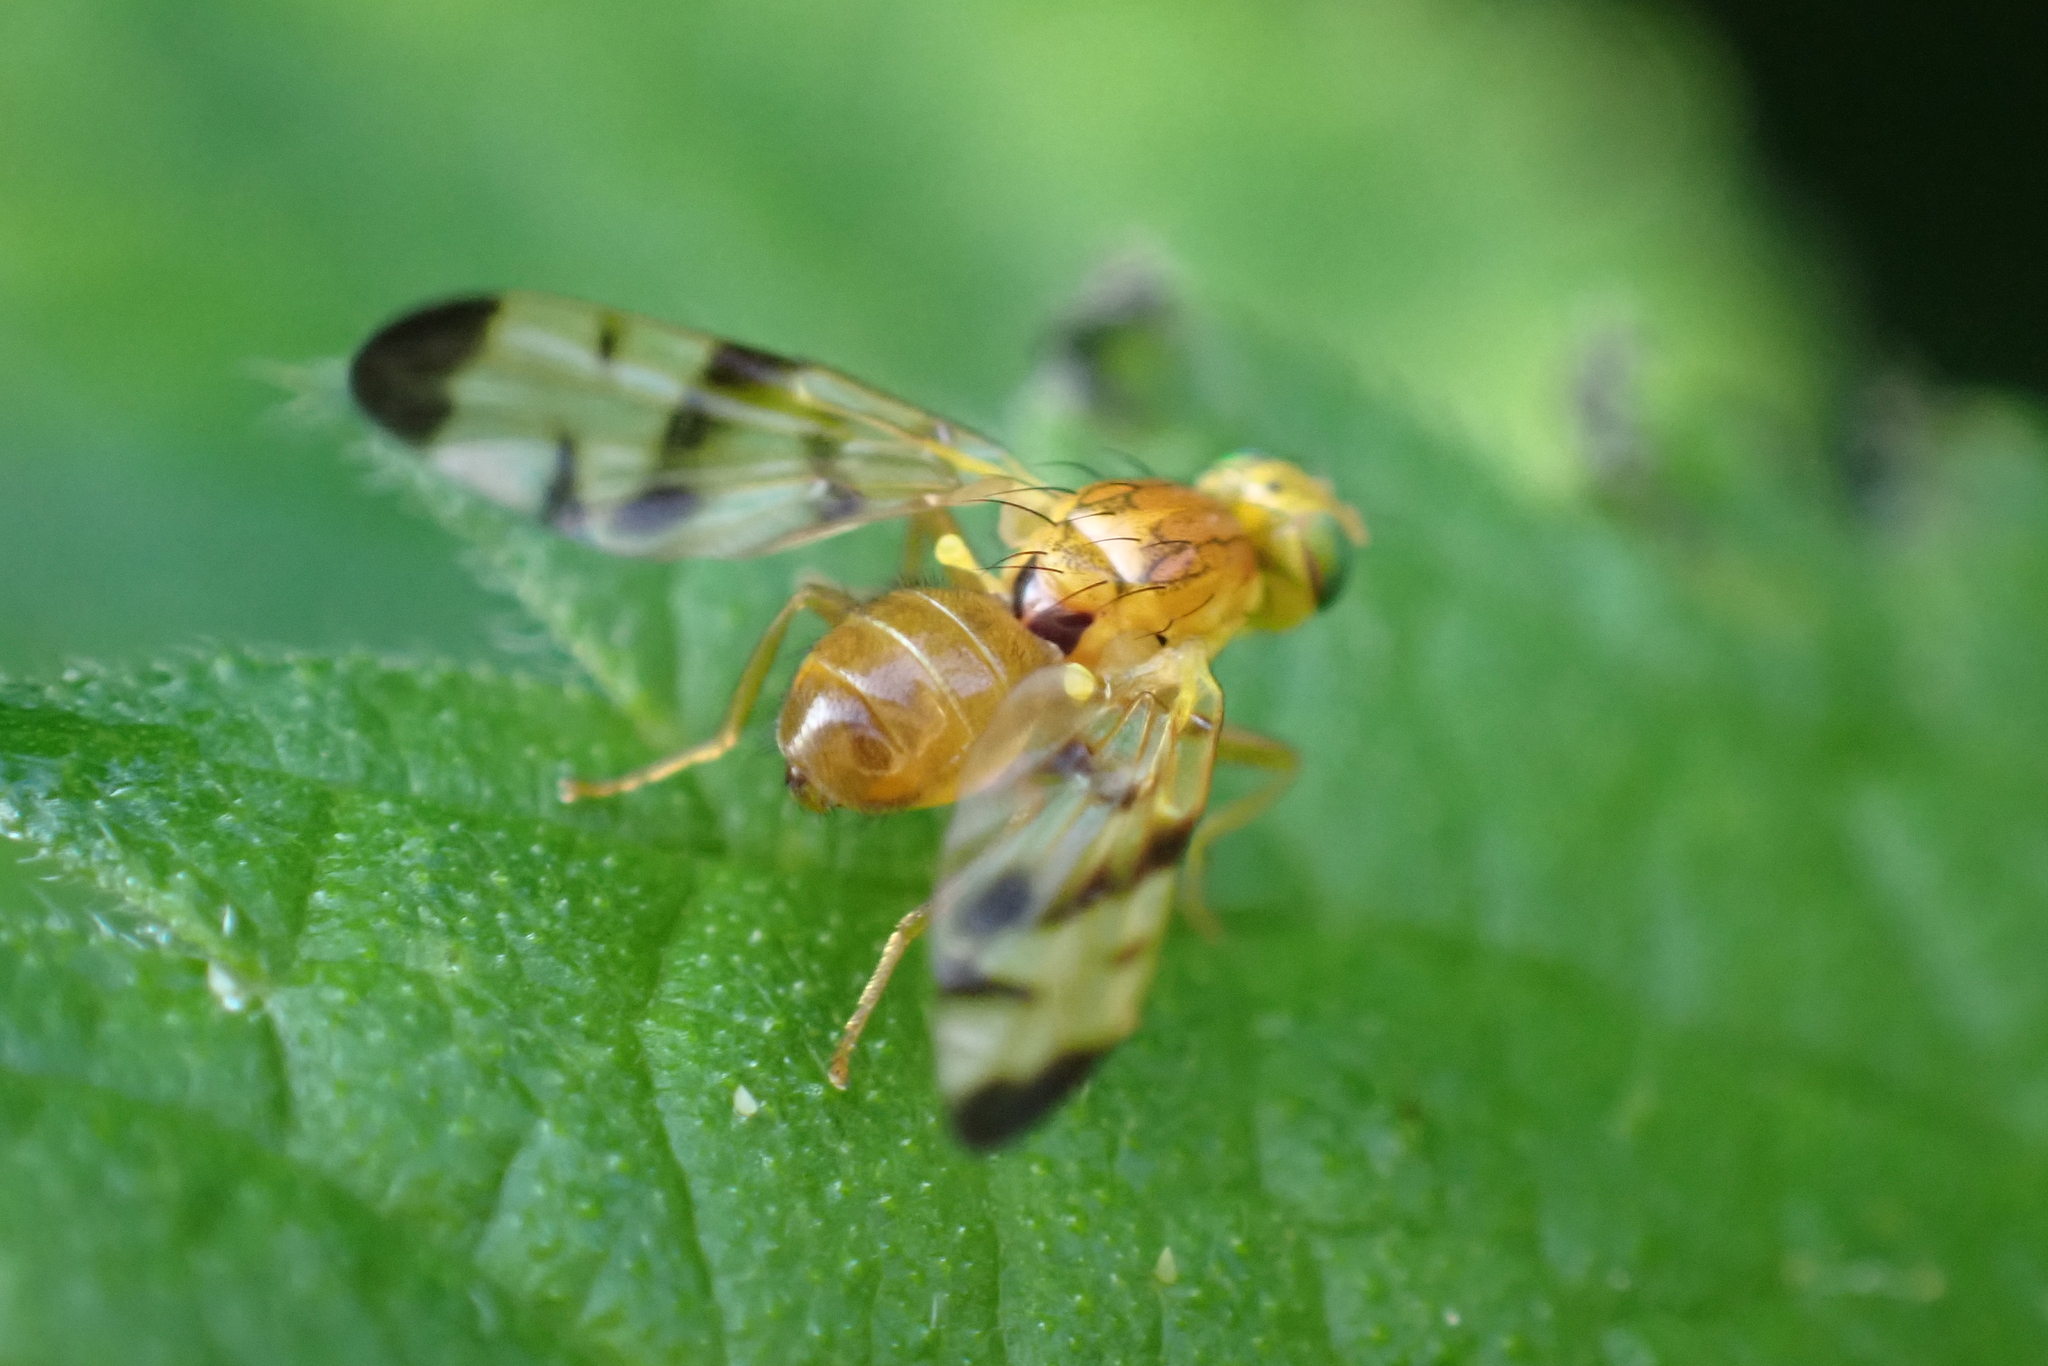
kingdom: Animalia
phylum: Arthropoda
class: Insecta
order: Diptera
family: Tephritidae
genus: Trypeta
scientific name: Trypeta immaculata
